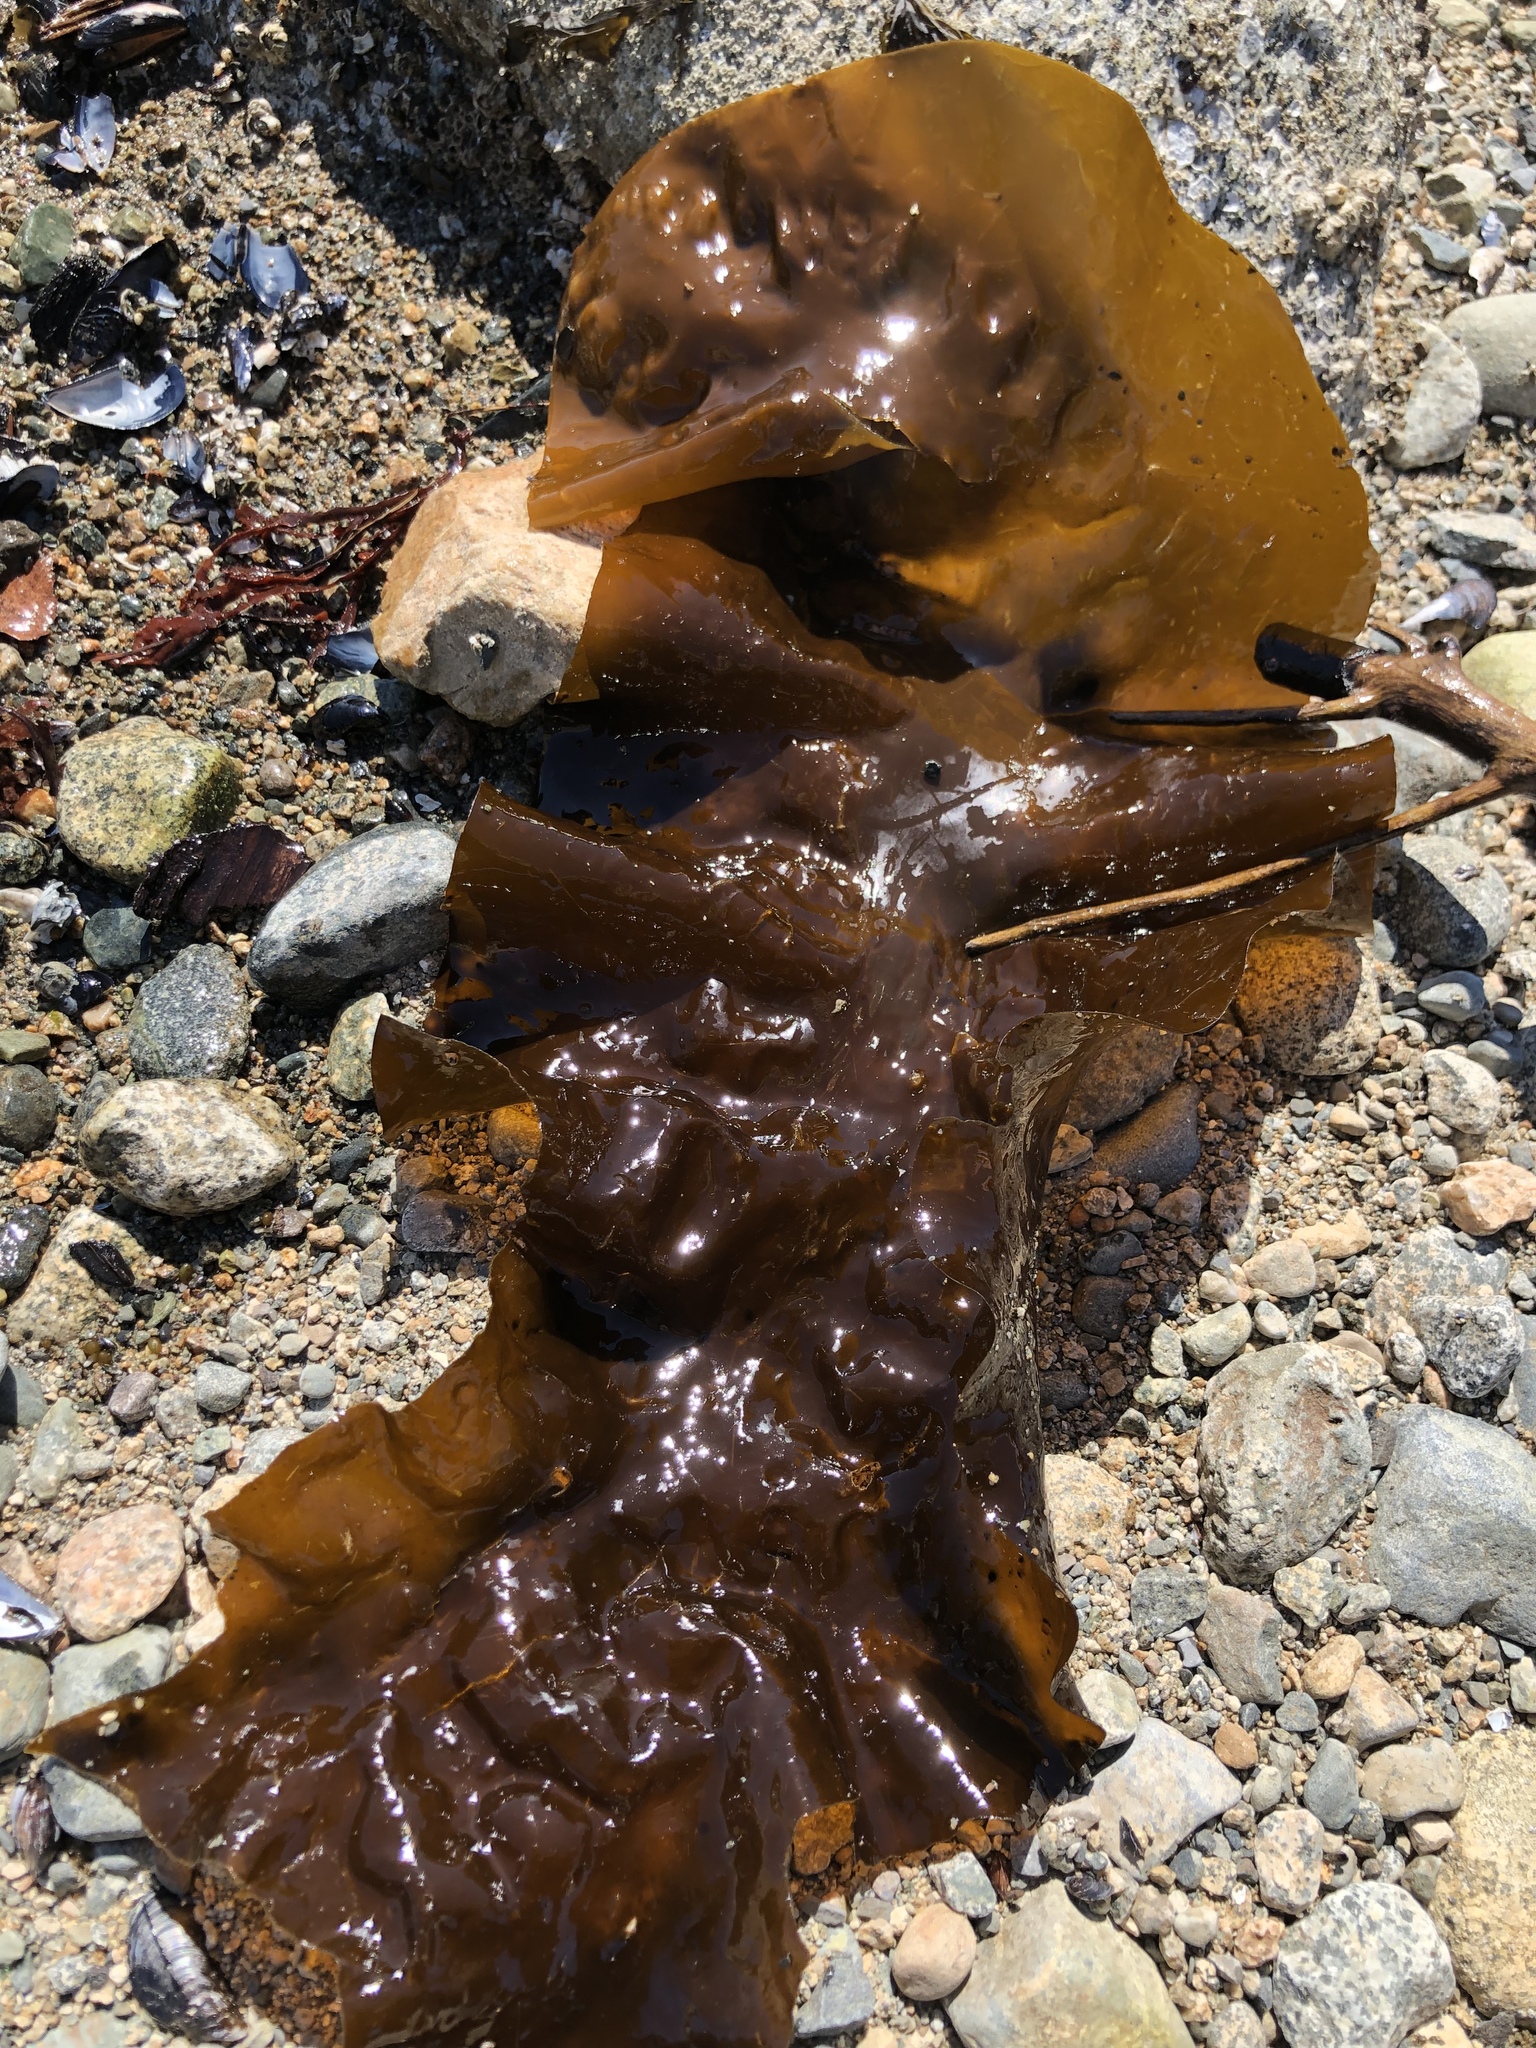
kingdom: Chromista
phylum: Ochrophyta
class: Phaeophyceae
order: Laminariales
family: Laminariaceae
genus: Saccharina
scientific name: Saccharina latissima
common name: Poor man's weather glass
